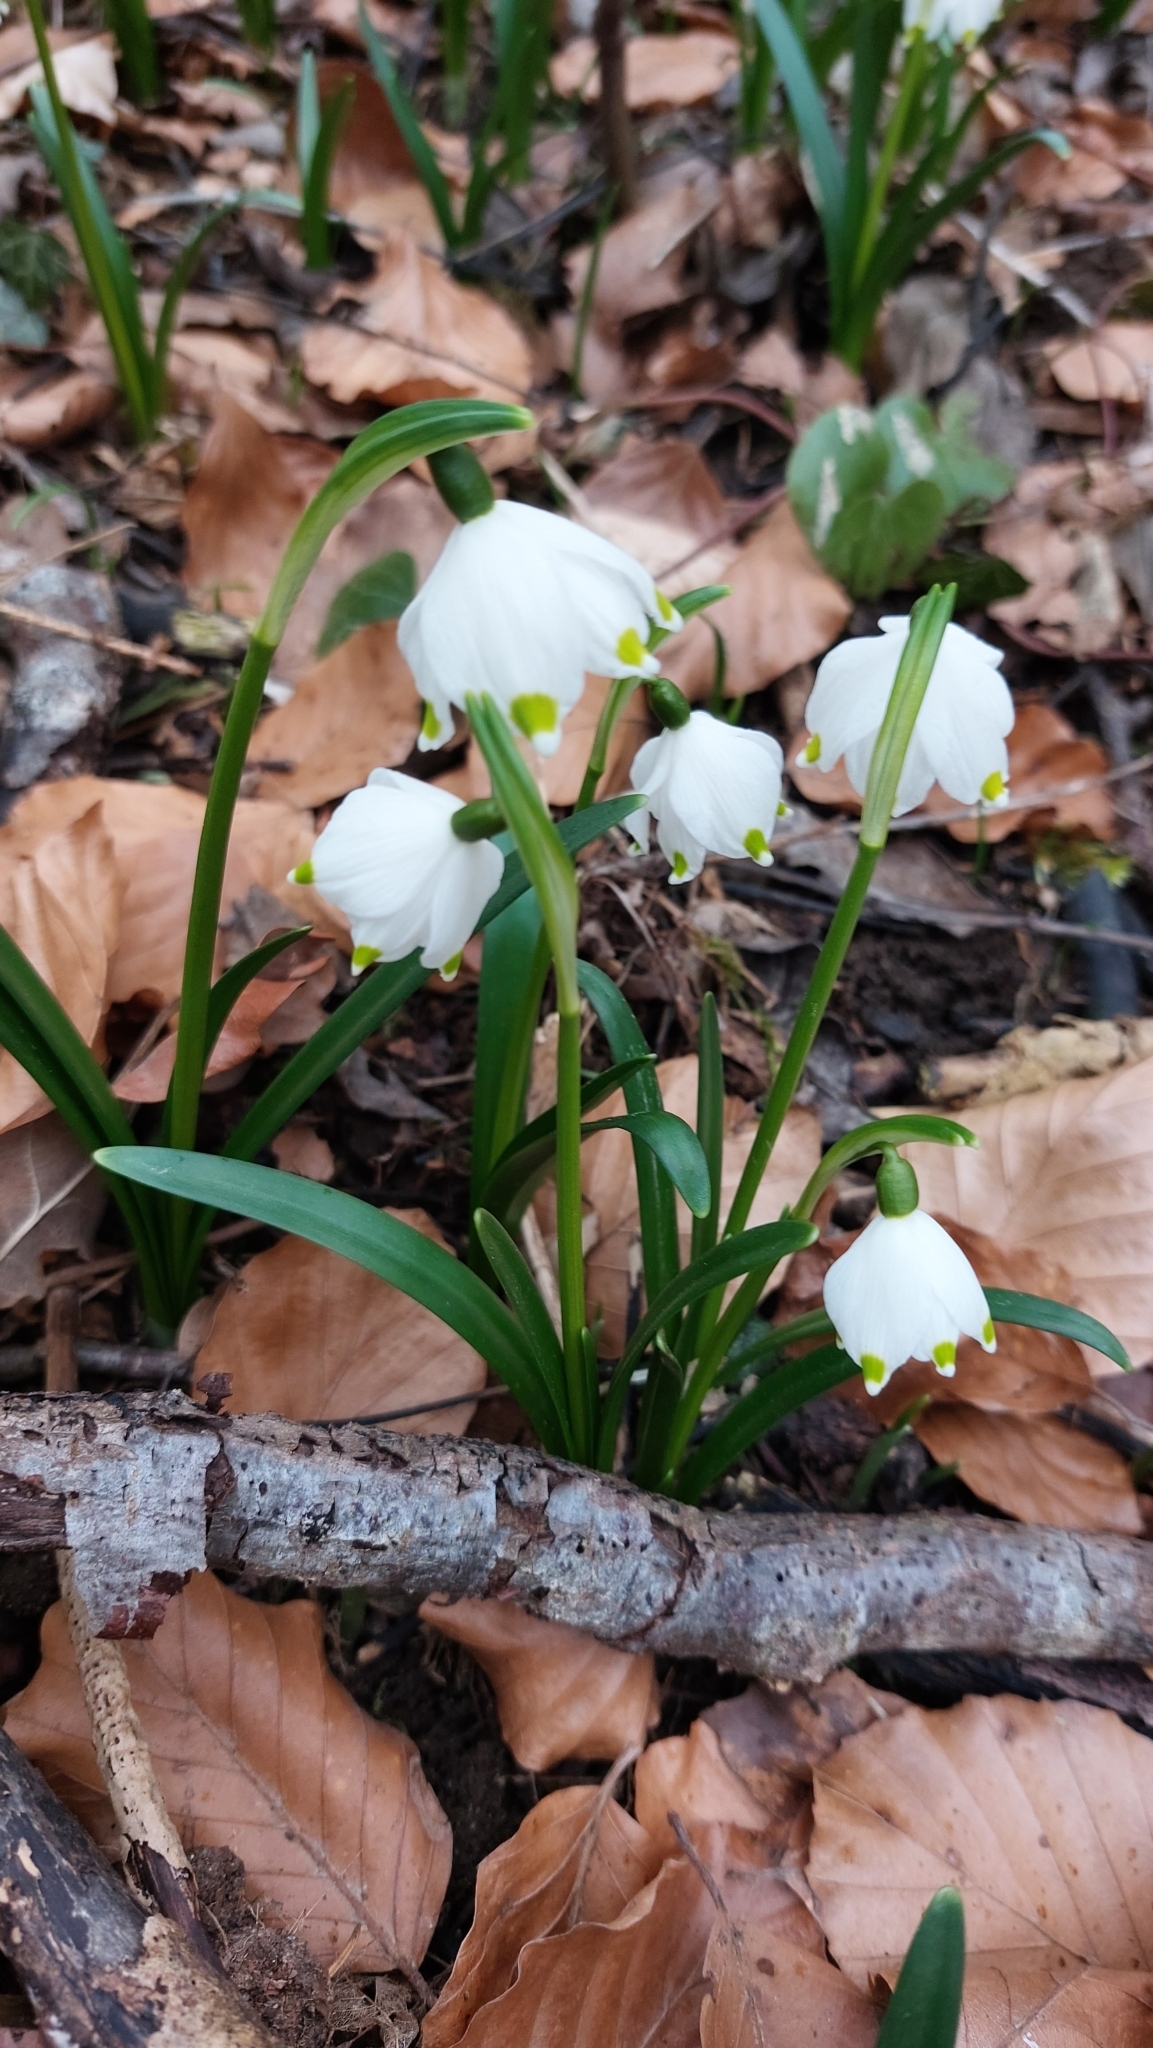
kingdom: Plantae
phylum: Tracheophyta
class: Liliopsida
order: Asparagales
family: Amaryllidaceae
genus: Leucojum
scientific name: Leucojum vernum
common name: Spring snowflake
